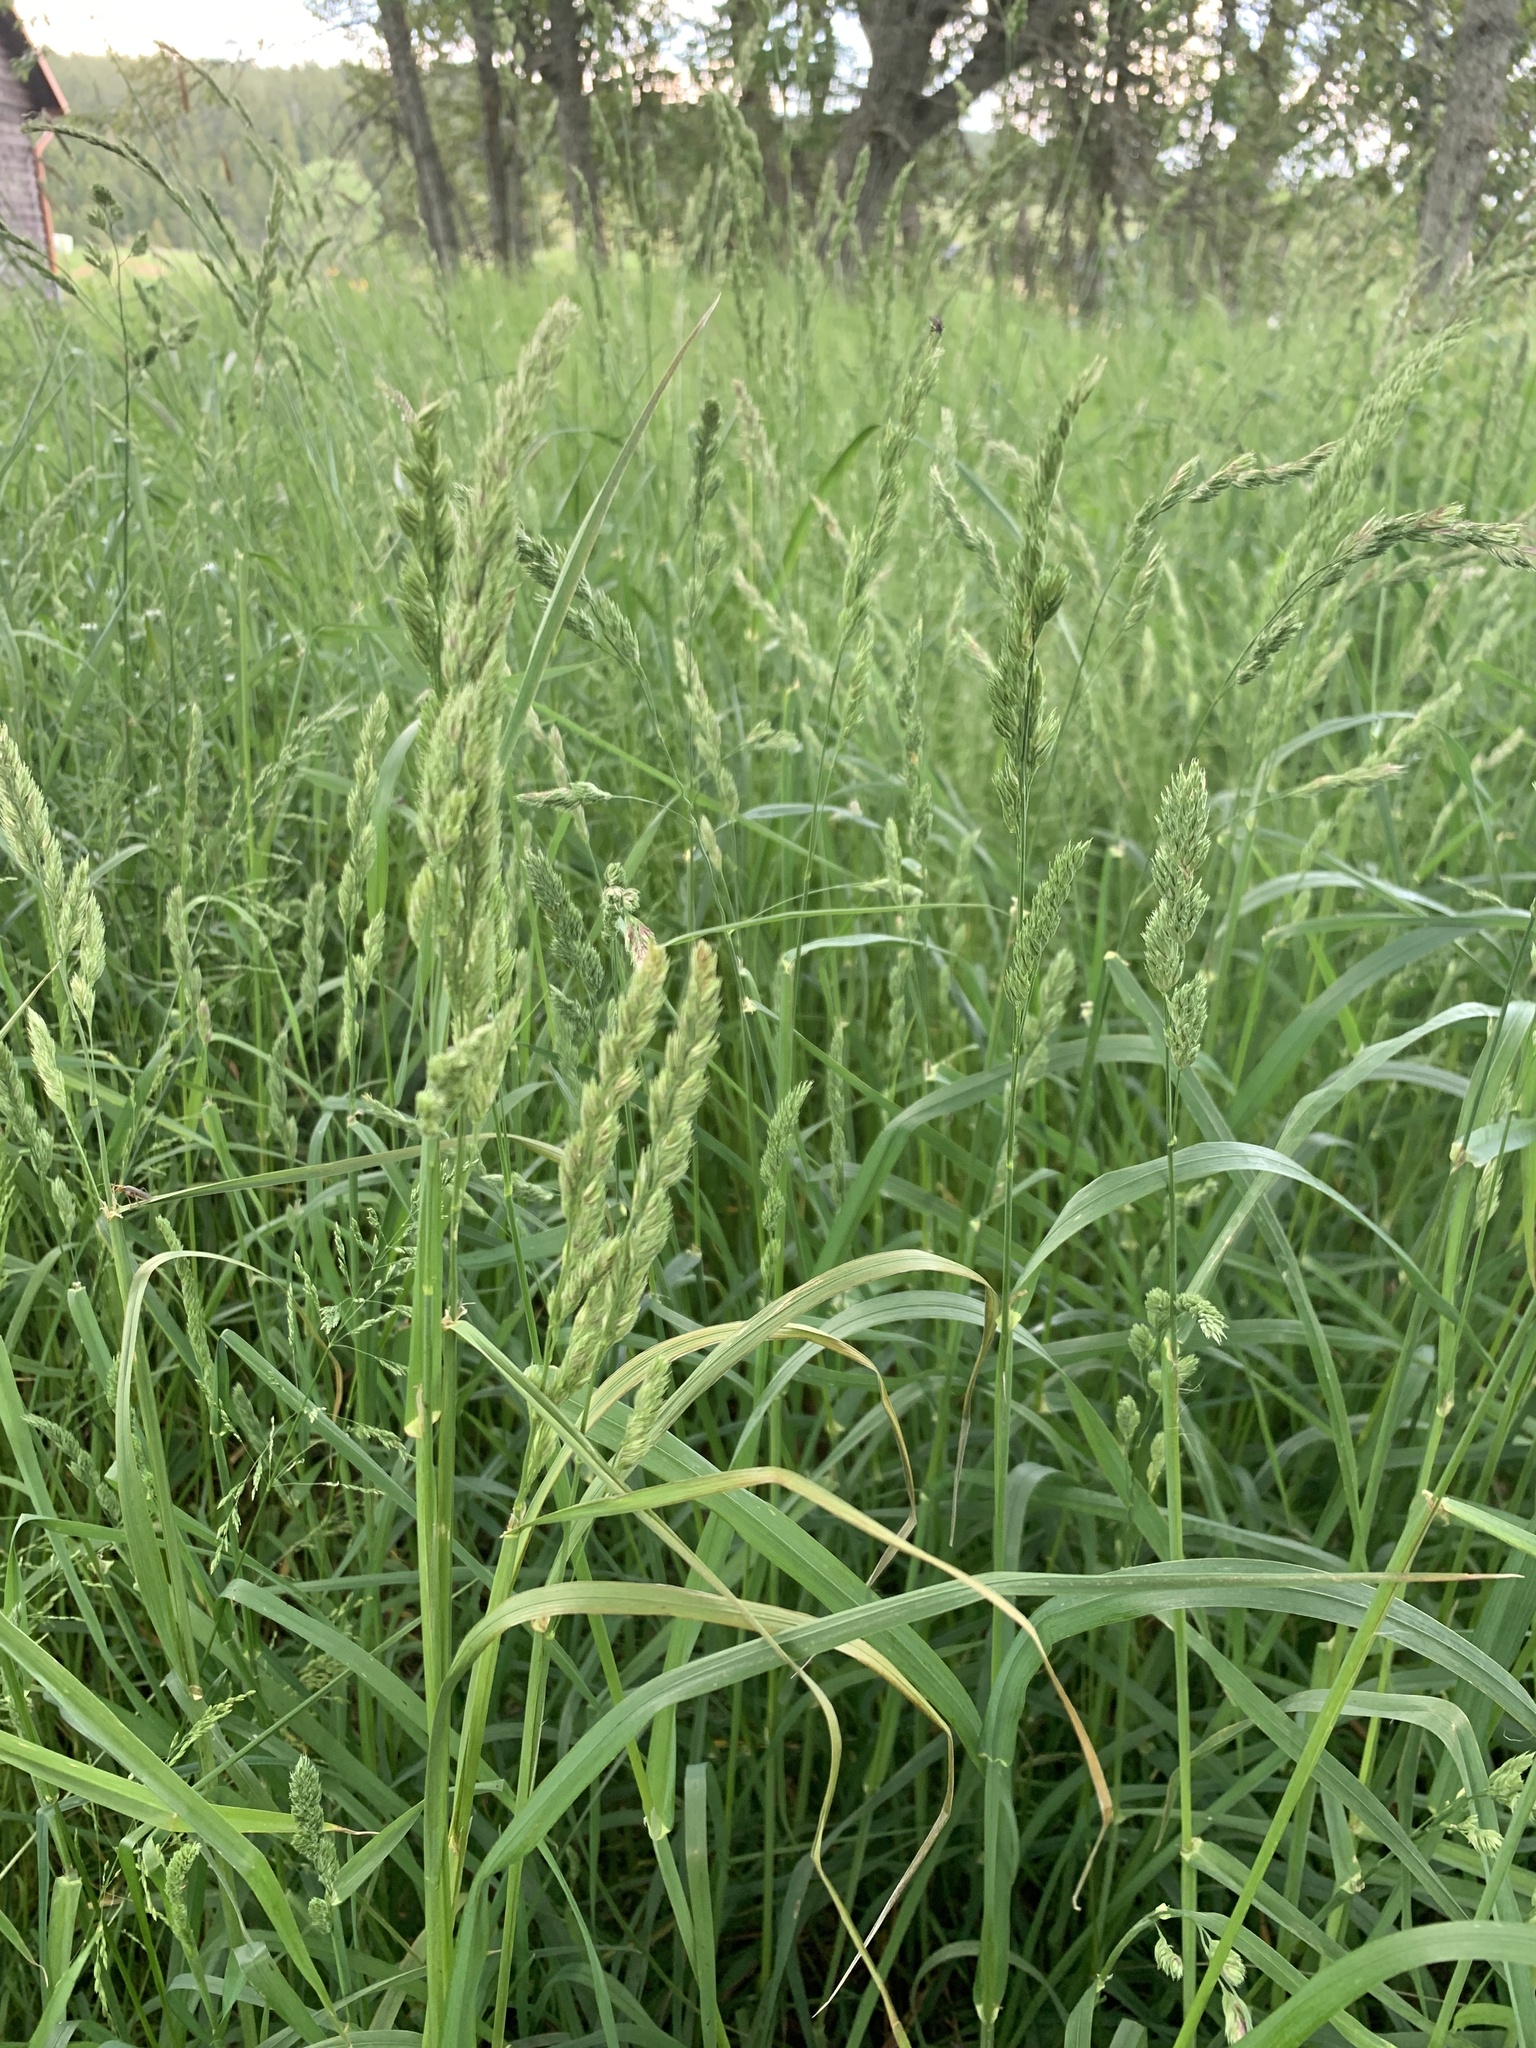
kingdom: Plantae
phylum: Tracheophyta
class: Liliopsida
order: Poales
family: Poaceae
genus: Dactylis
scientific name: Dactylis glomerata
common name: Orchardgrass
